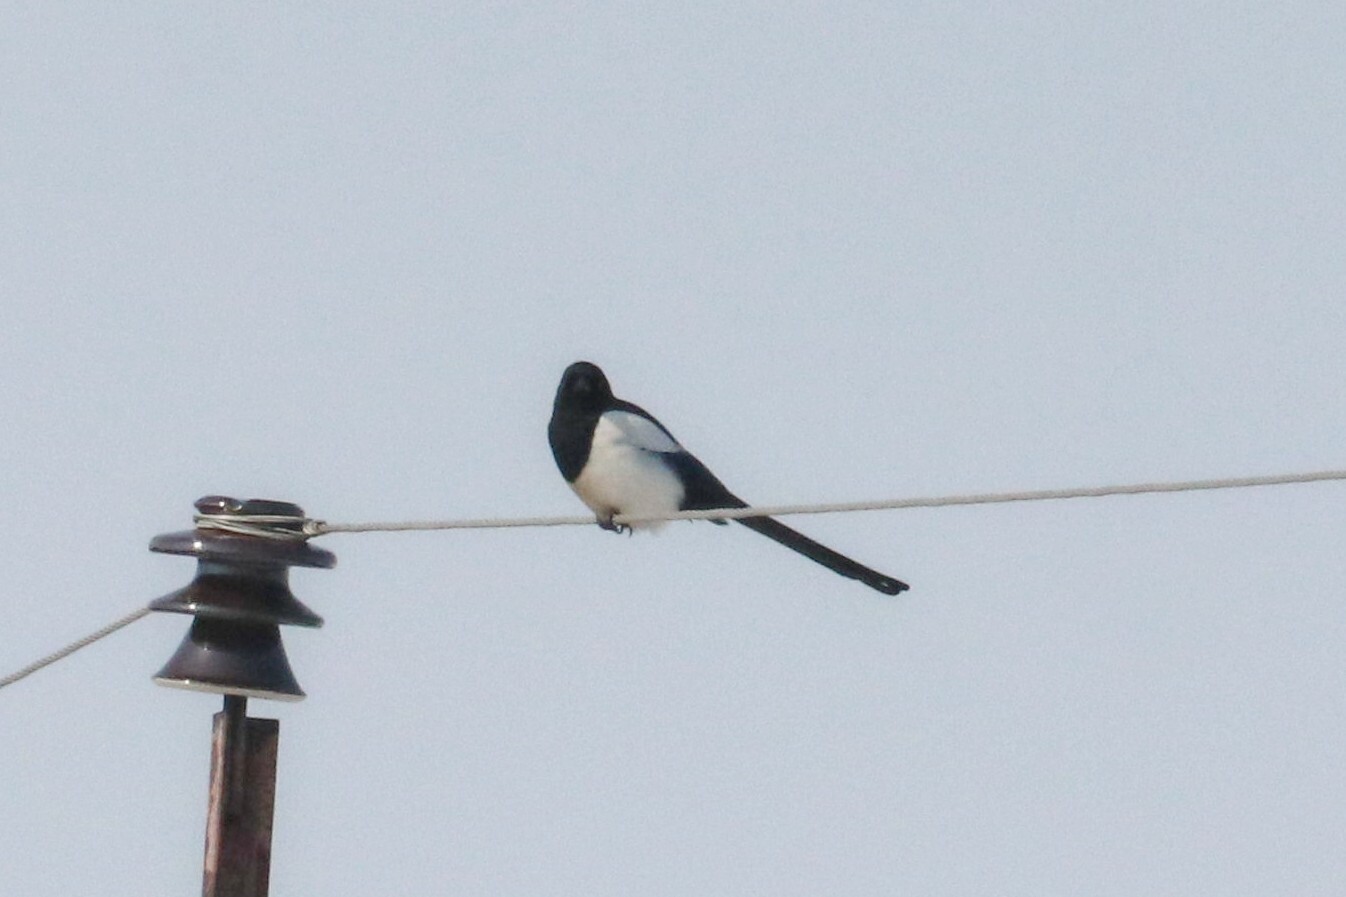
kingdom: Animalia
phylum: Chordata
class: Aves
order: Passeriformes
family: Corvidae
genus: Pica
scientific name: Pica pica
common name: Eurasian magpie
